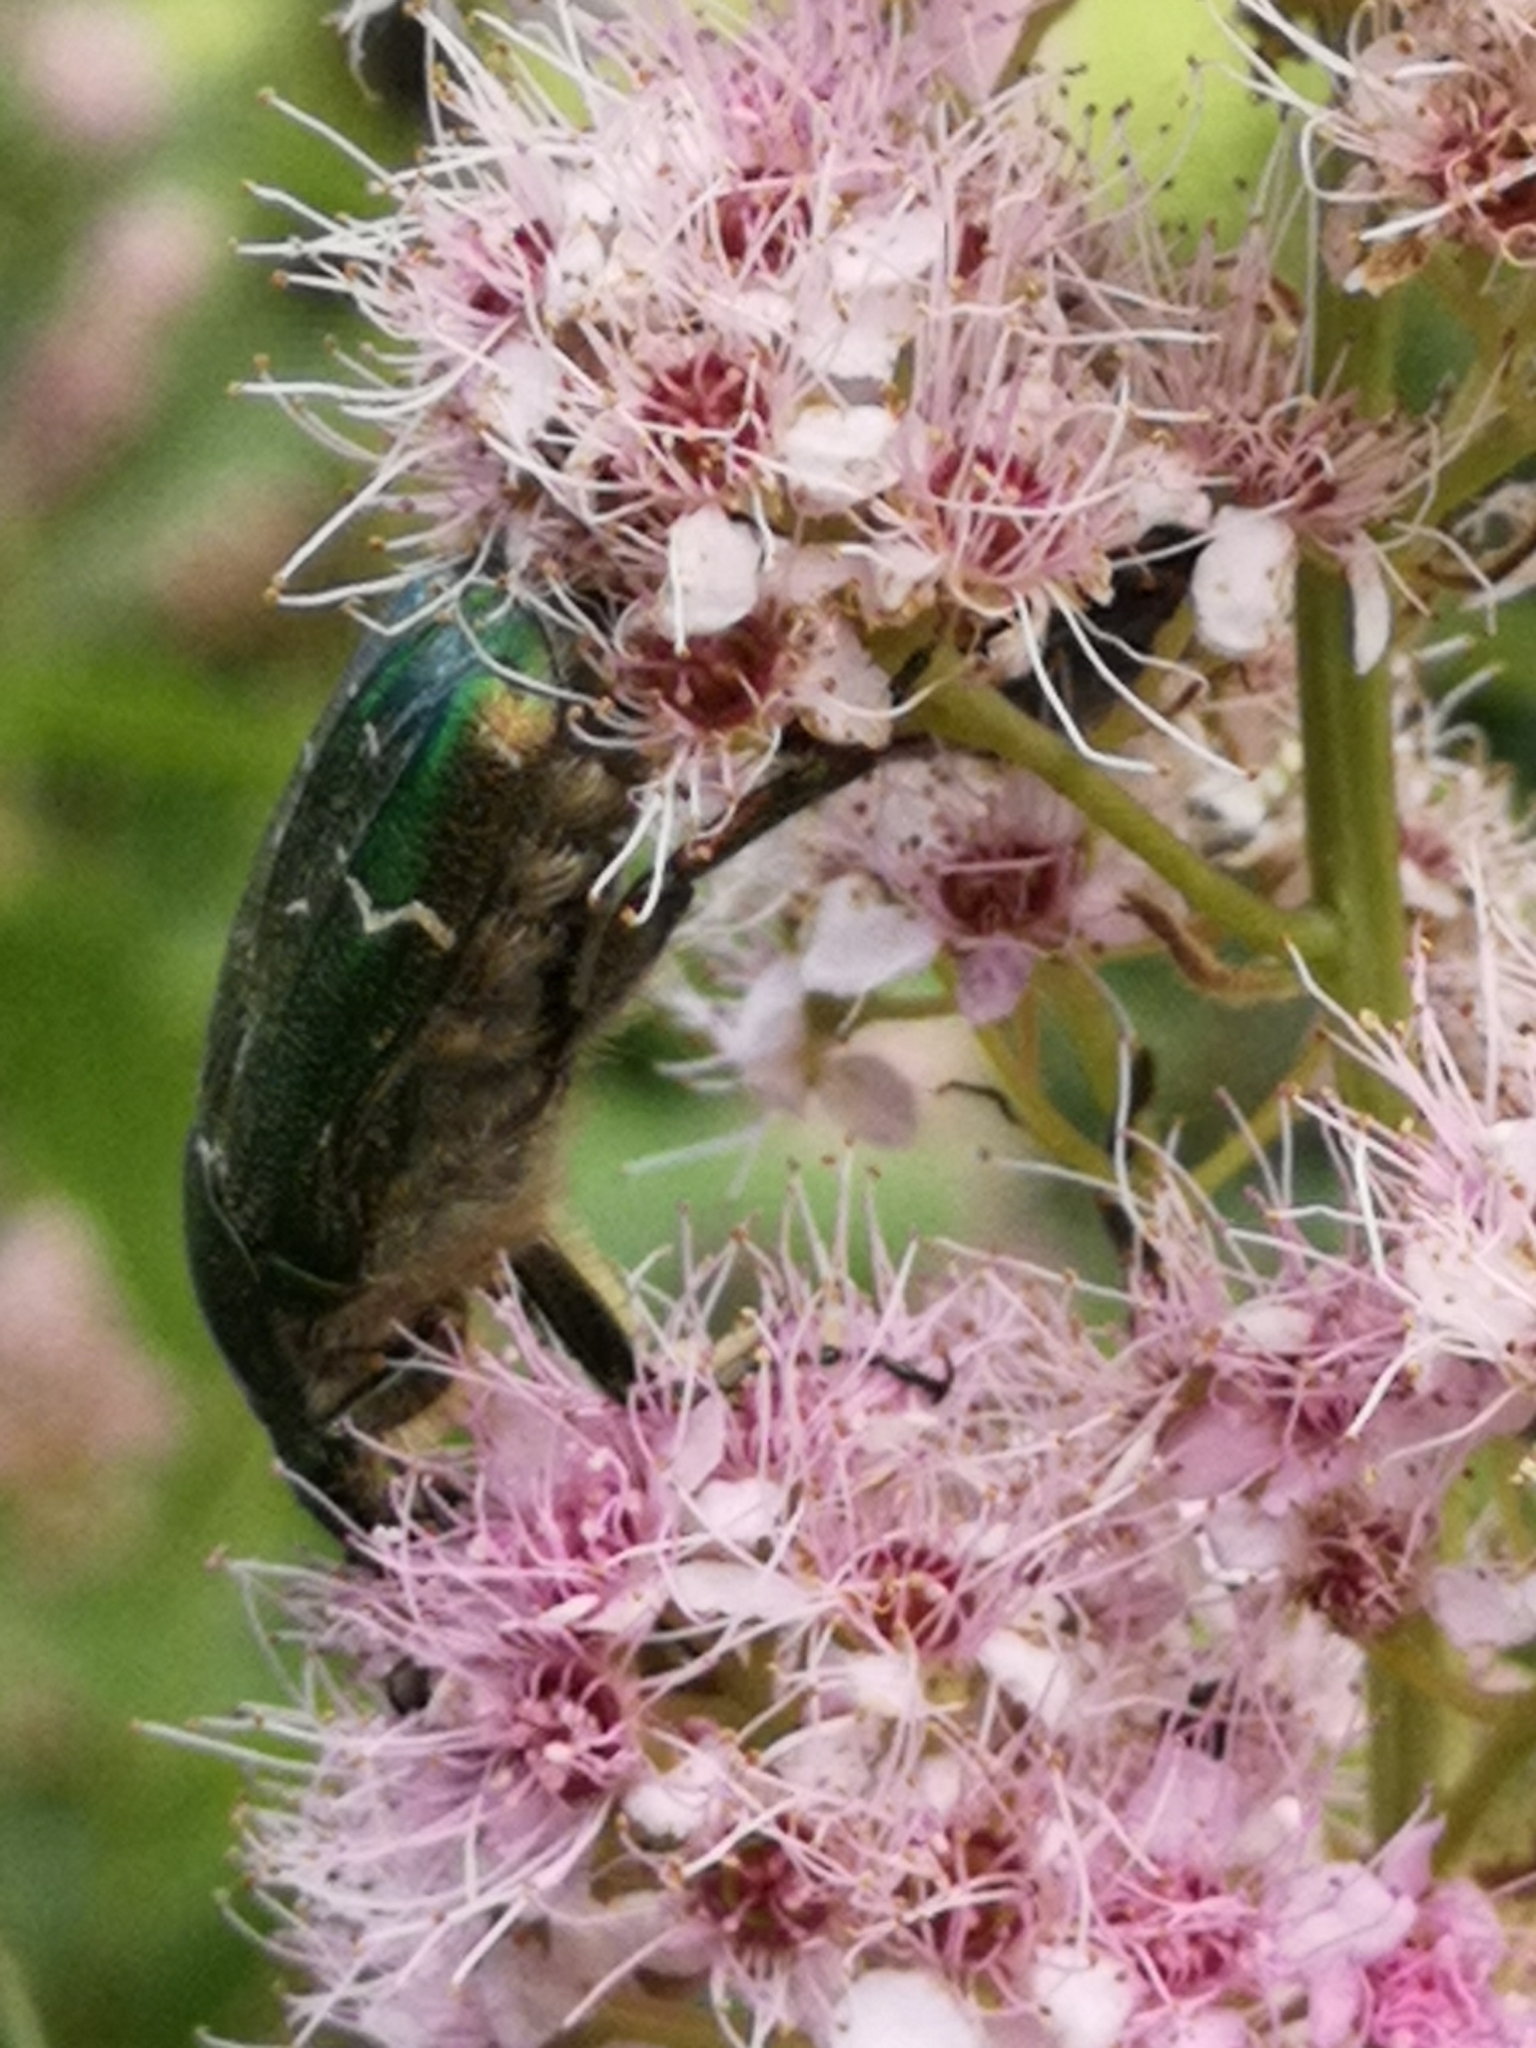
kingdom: Animalia
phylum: Arthropoda
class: Insecta
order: Coleoptera
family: Scarabaeidae
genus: Cetonia
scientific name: Cetonia aurata
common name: Rose chafer
